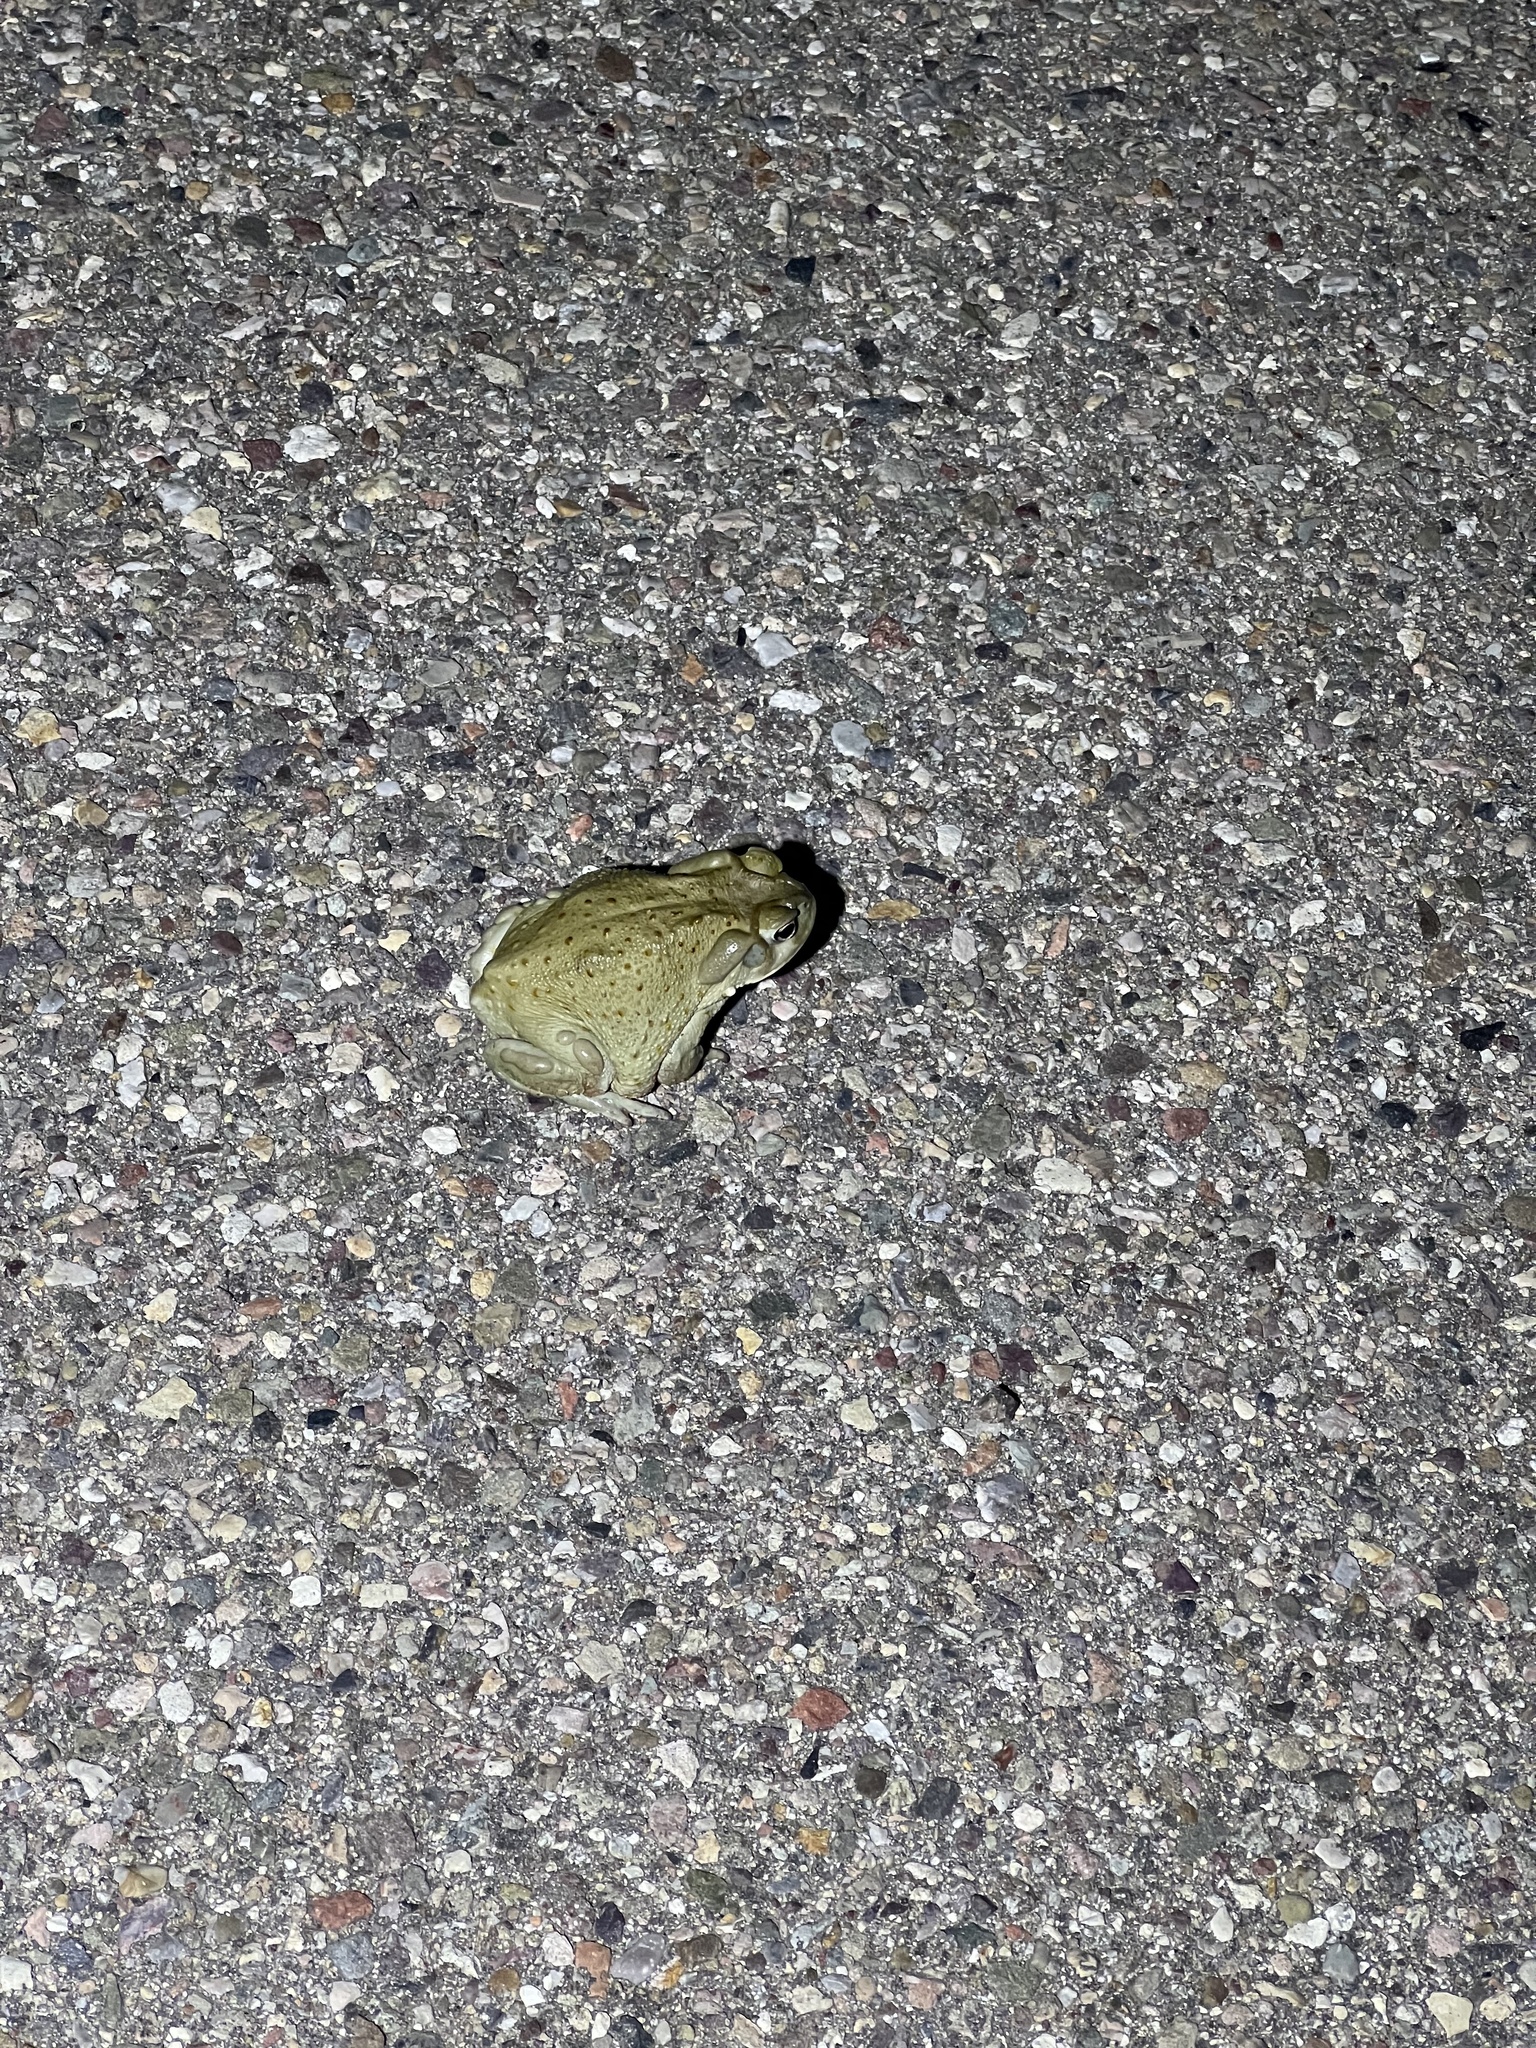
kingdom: Animalia
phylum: Chordata
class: Amphibia
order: Anura
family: Bufonidae
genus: Incilius
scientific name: Incilius alvarius
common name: Sonoran desert toad
